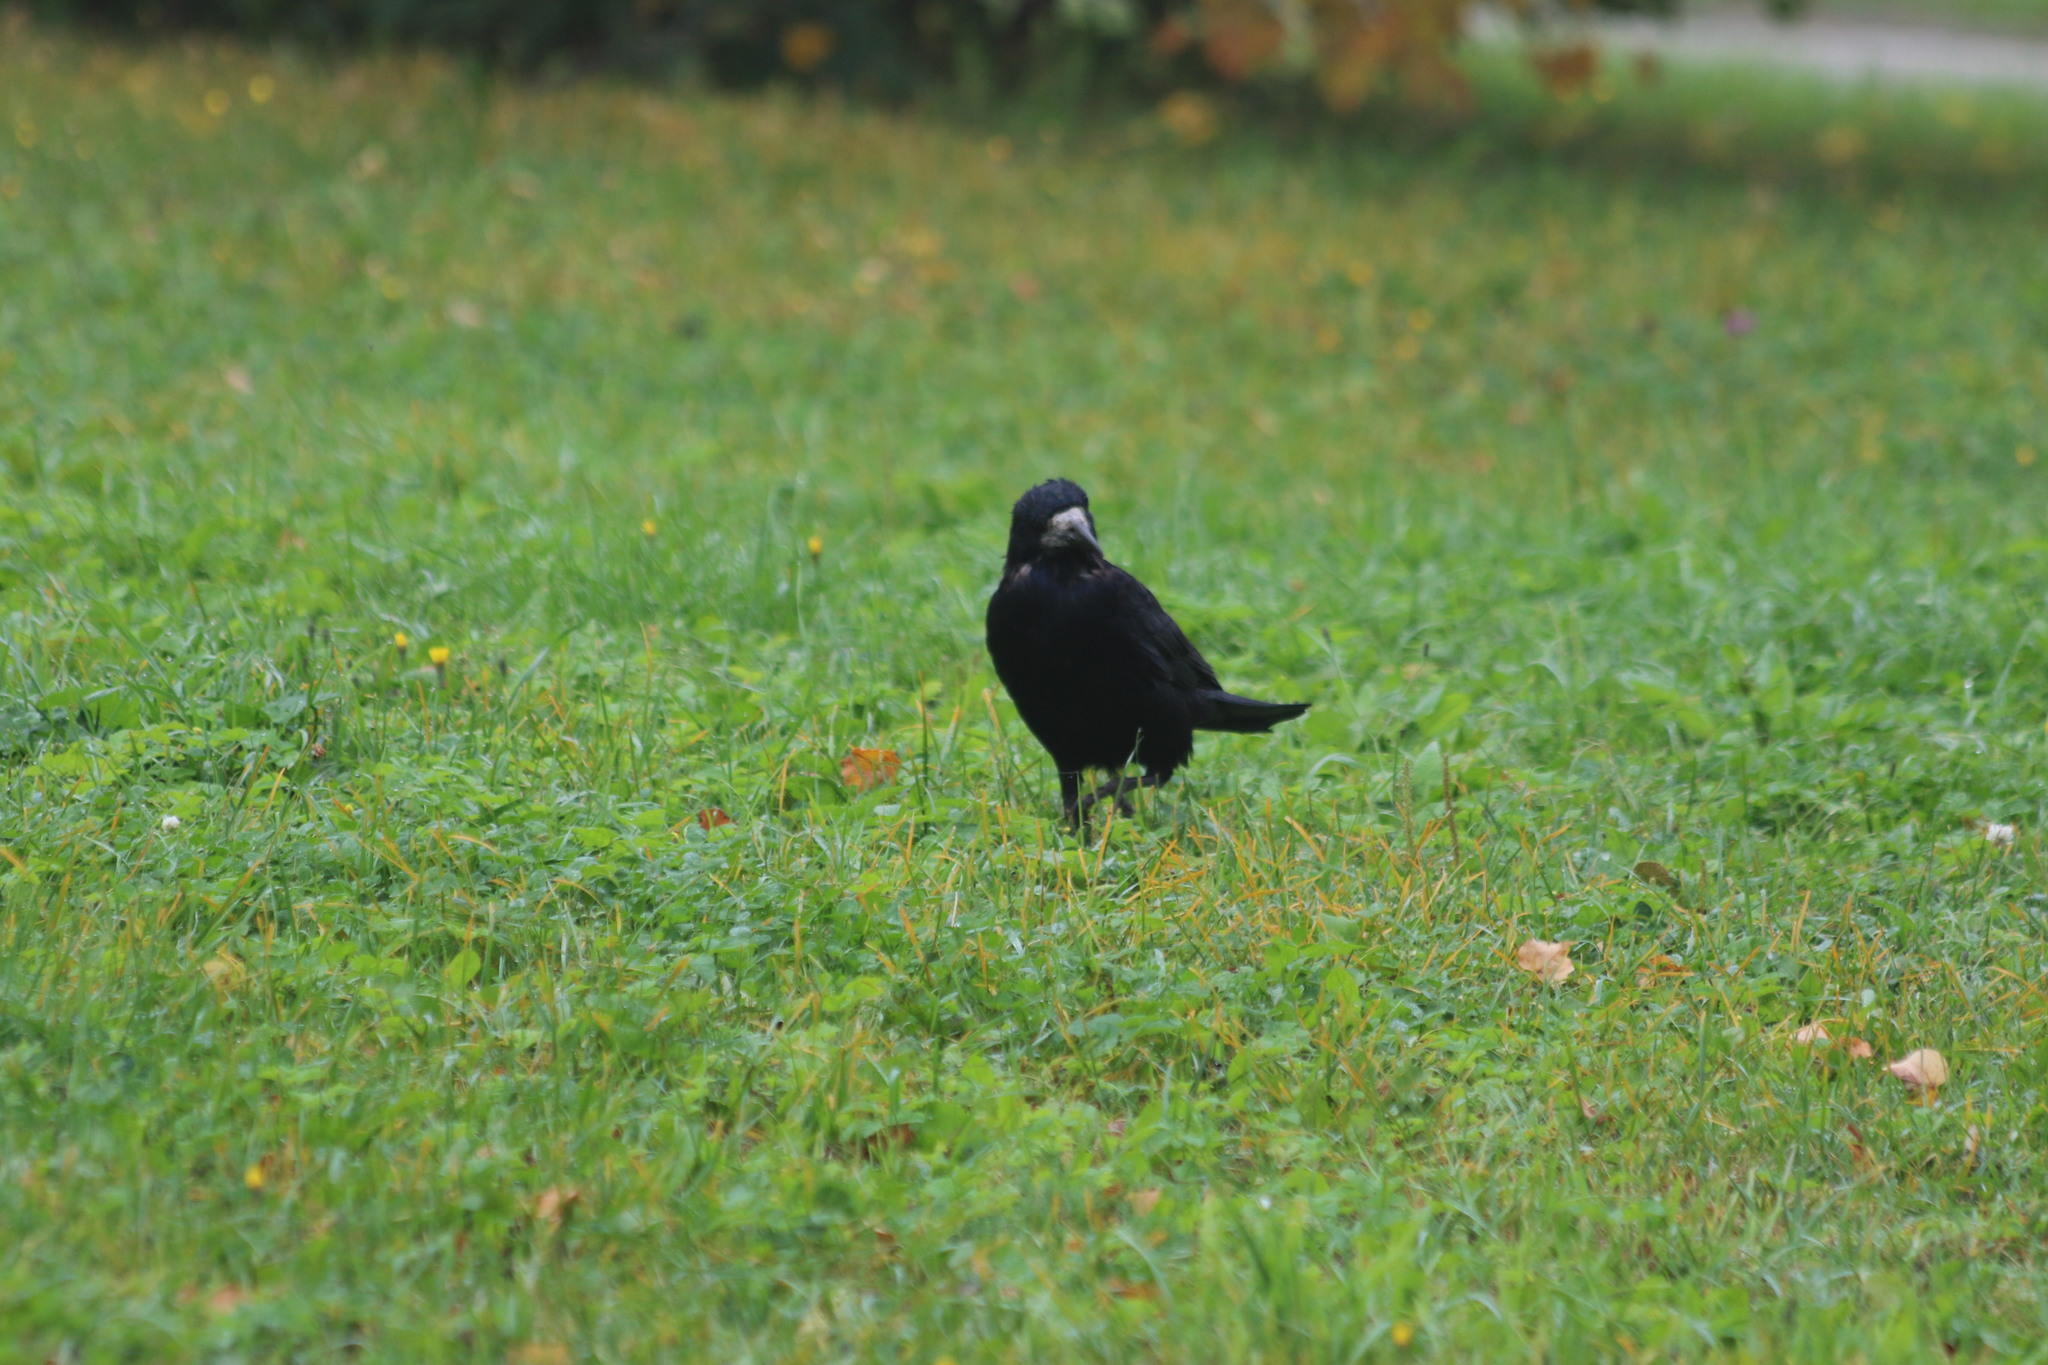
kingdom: Animalia
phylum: Chordata
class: Aves
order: Passeriformes
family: Corvidae
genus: Corvus
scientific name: Corvus frugilegus
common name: Rook
